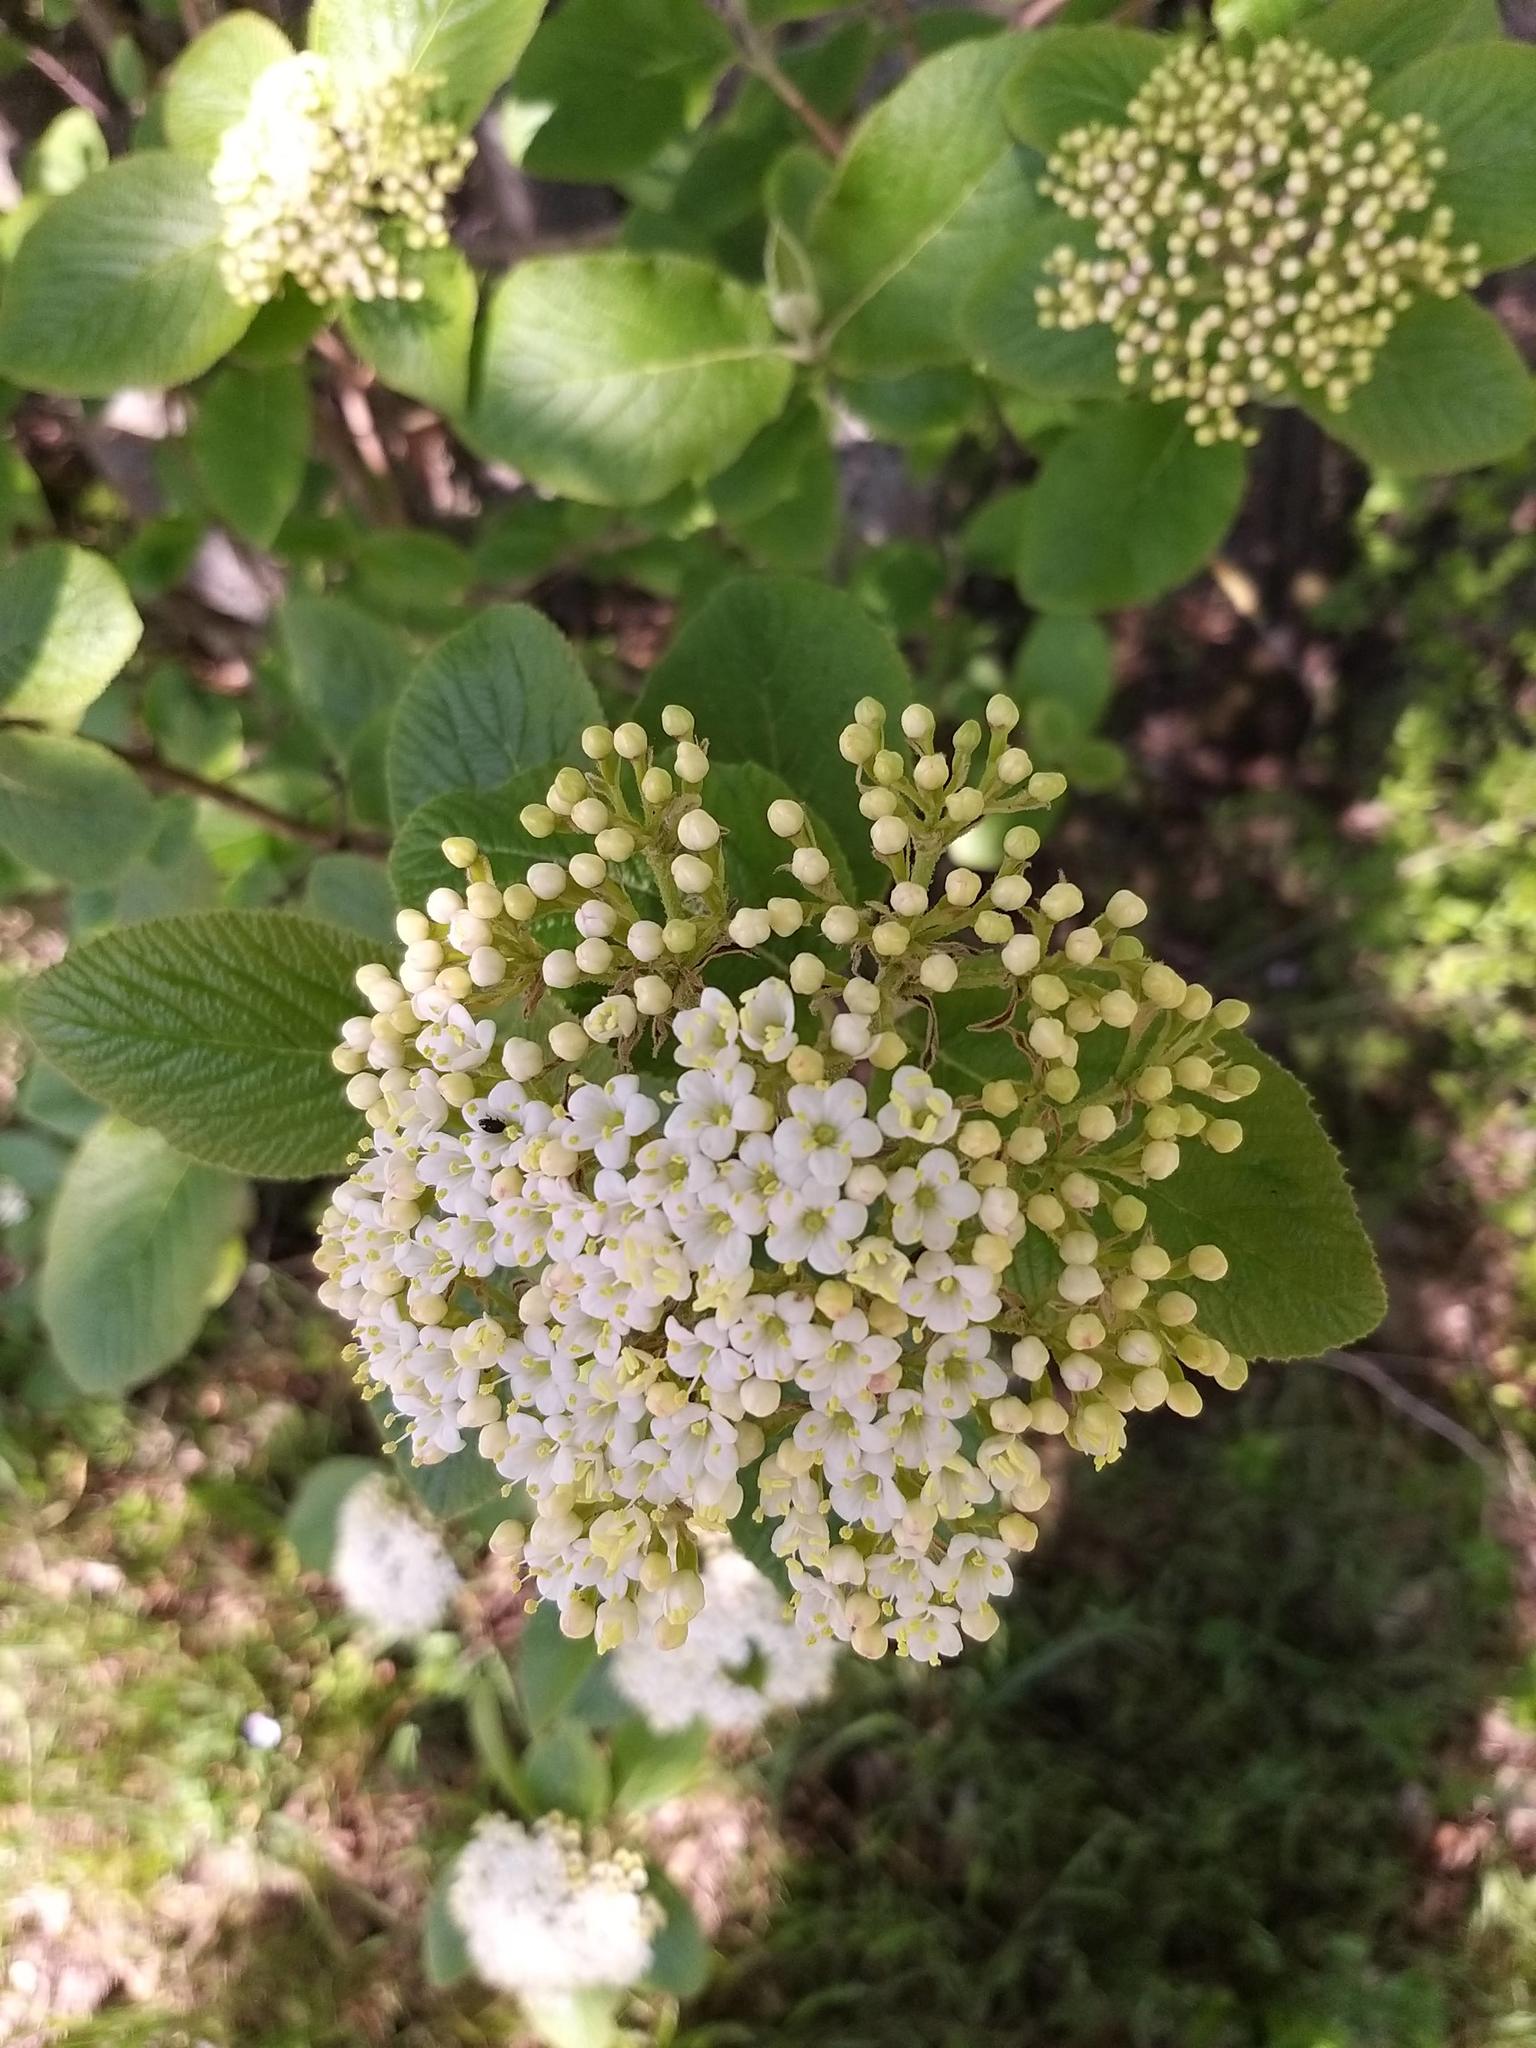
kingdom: Plantae
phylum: Tracheophyta
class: Magnoliopsida
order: Dipsacales
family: Viburnaceae
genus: Viburnum
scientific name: Viburnum lantana
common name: Wayfaring tree
